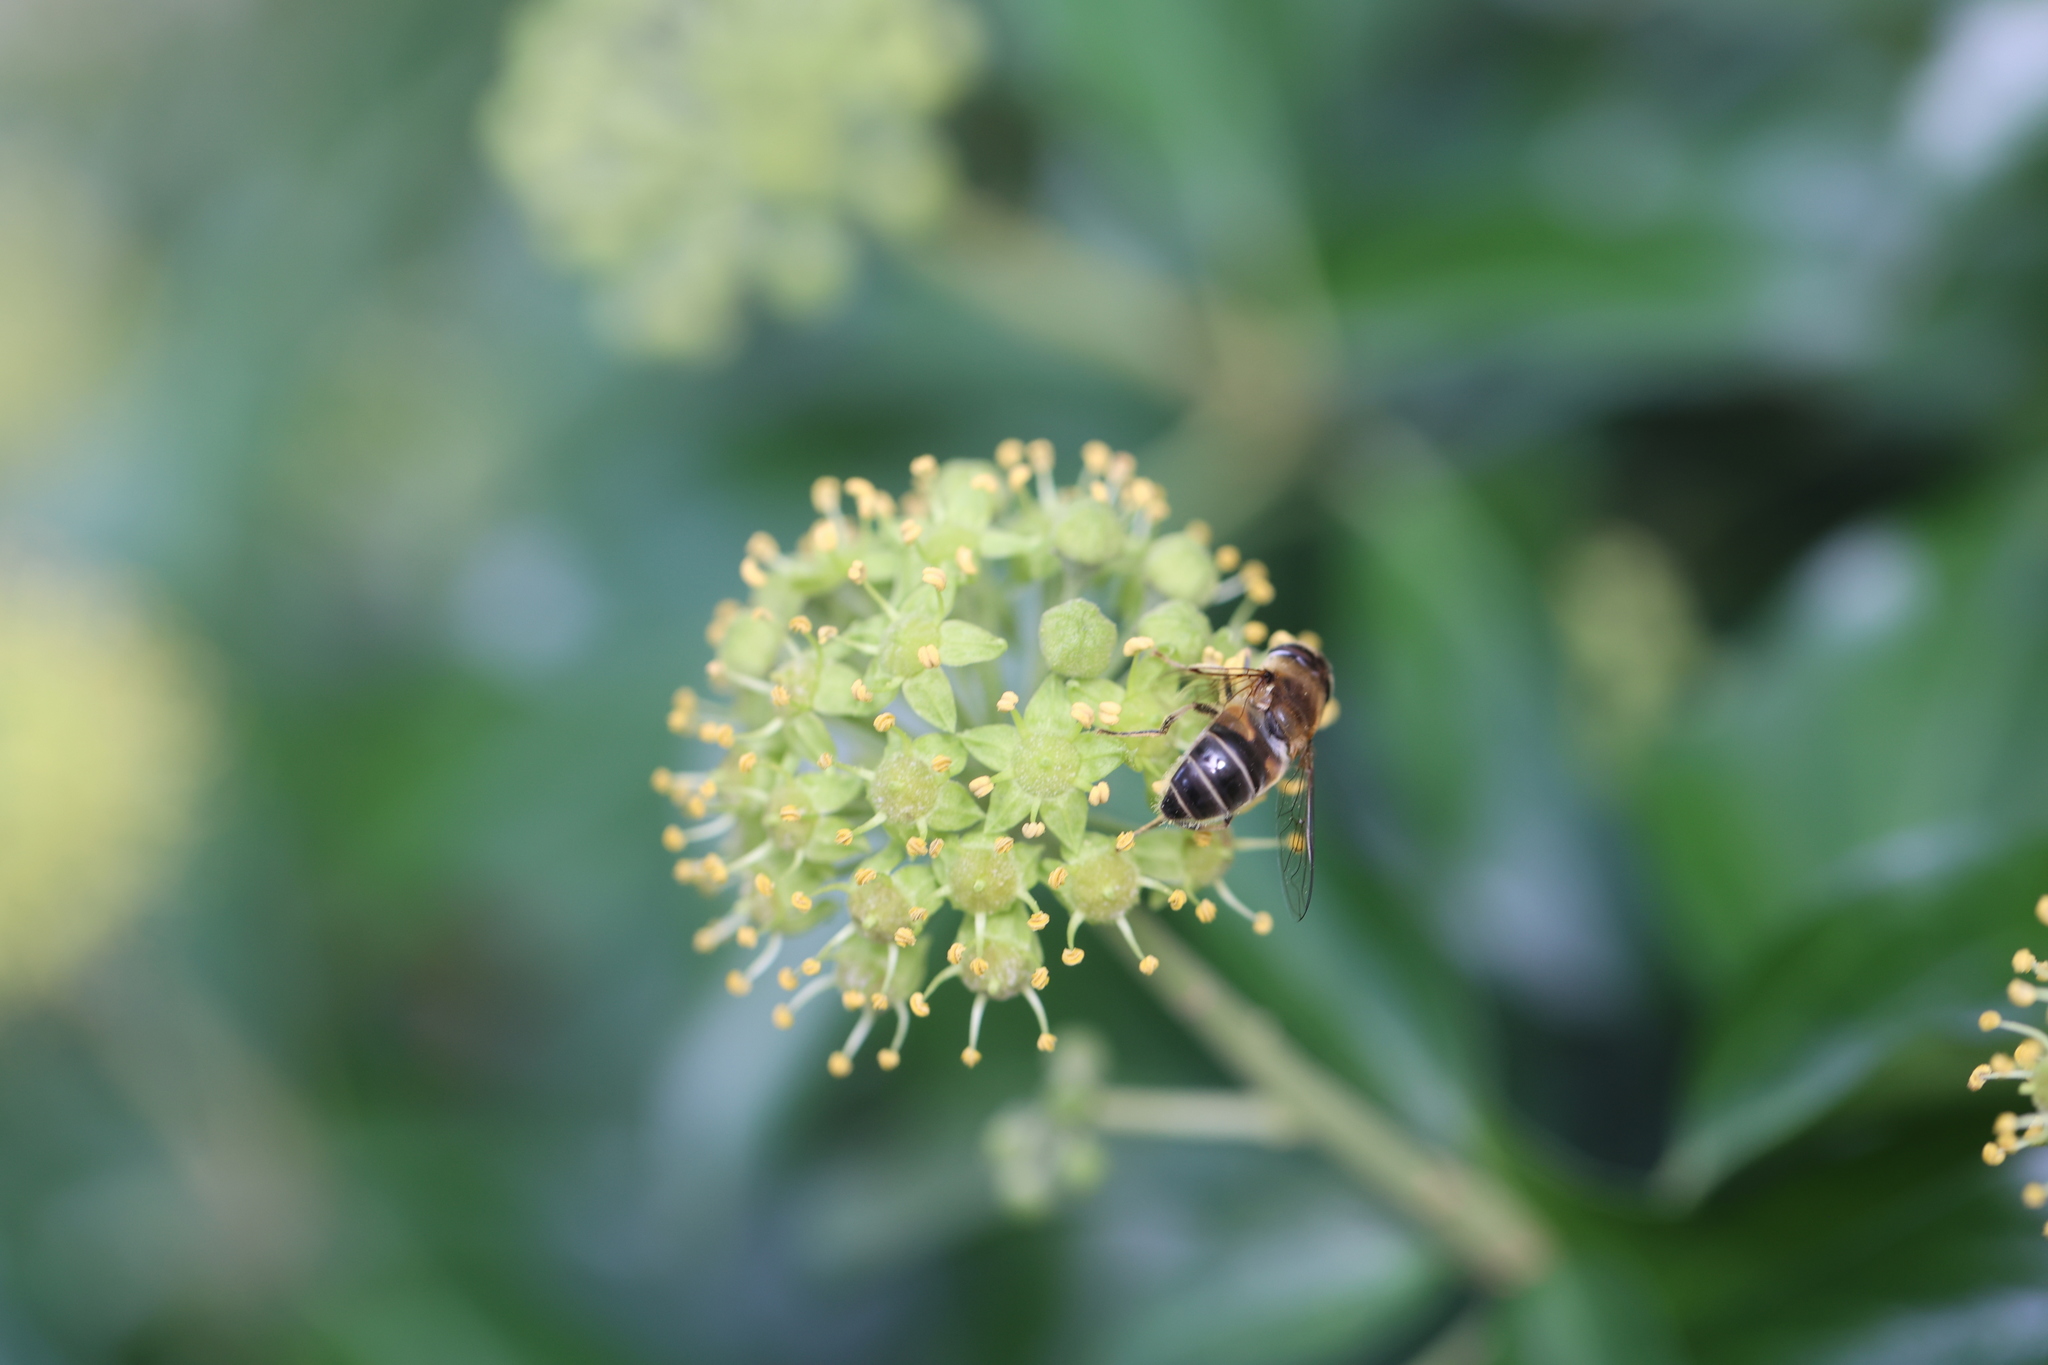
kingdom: Animalia
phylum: Arthropoda
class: Insecta
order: Diptera
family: Syrphidae
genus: Eristalis
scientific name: Eristalis pertinax
